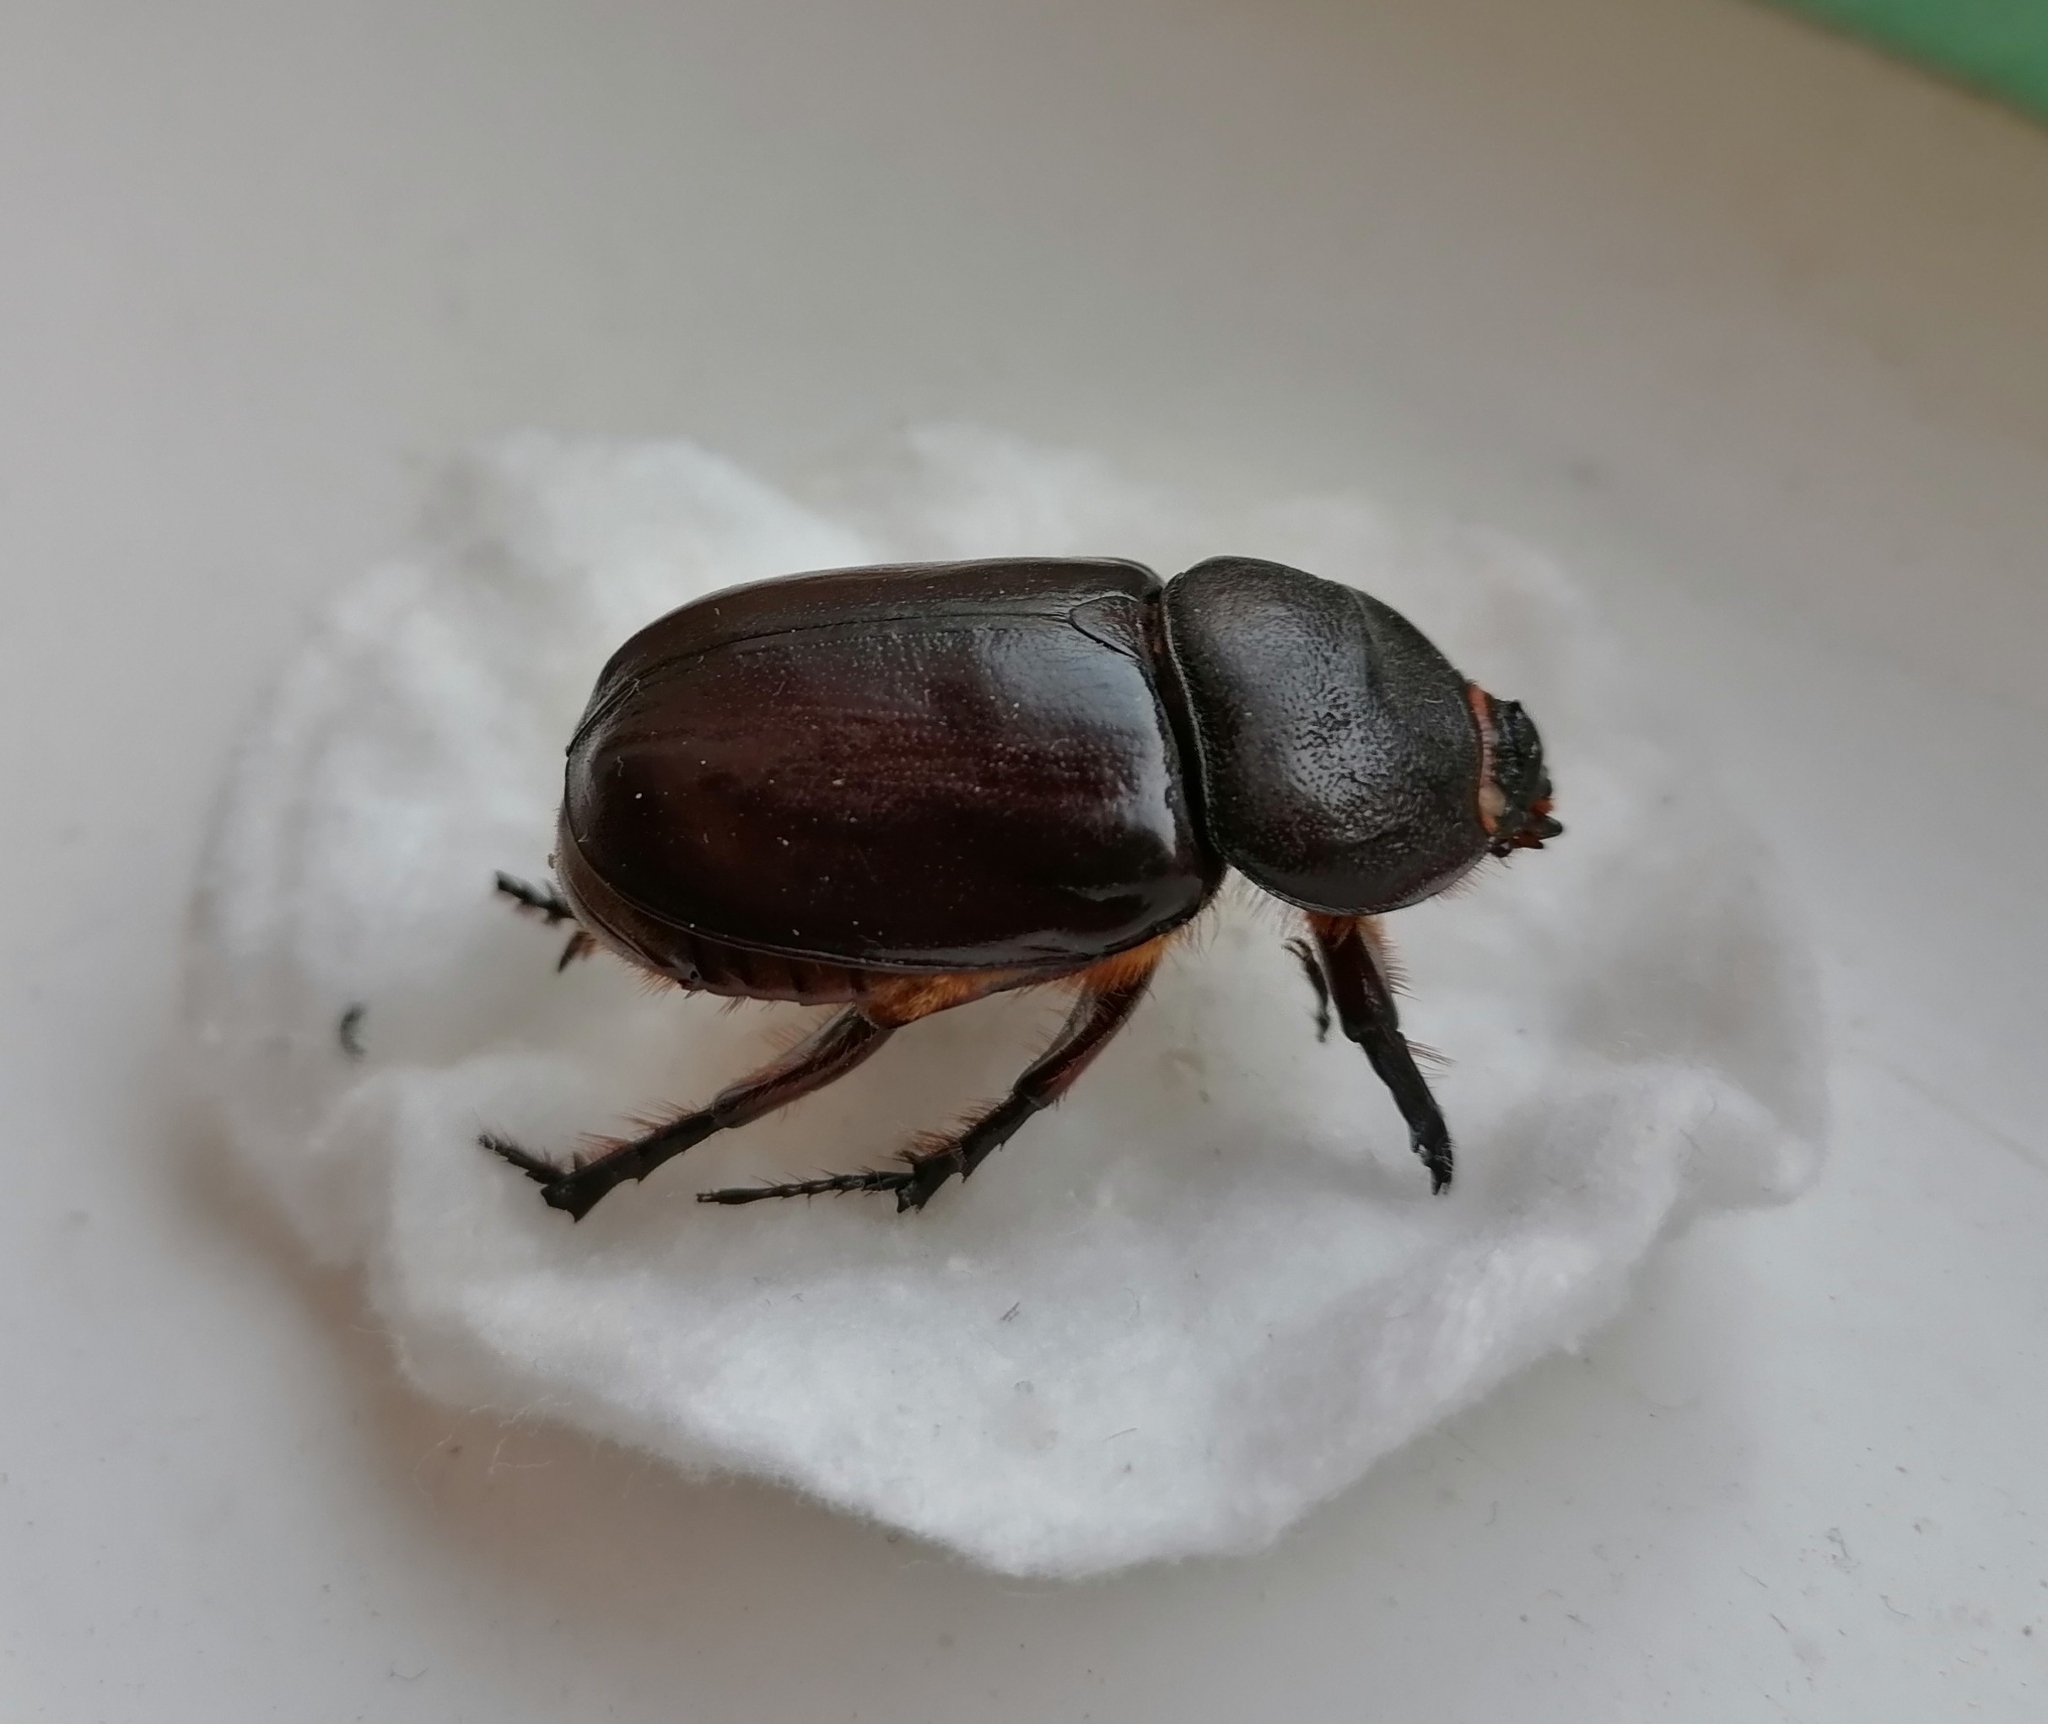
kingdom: Animalia
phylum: Arthropoda
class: Insecta
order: Coleoptera
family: Scarabaeidae
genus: Oryctes
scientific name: Oryctes nasicornis
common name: European rhinoceros beetle
